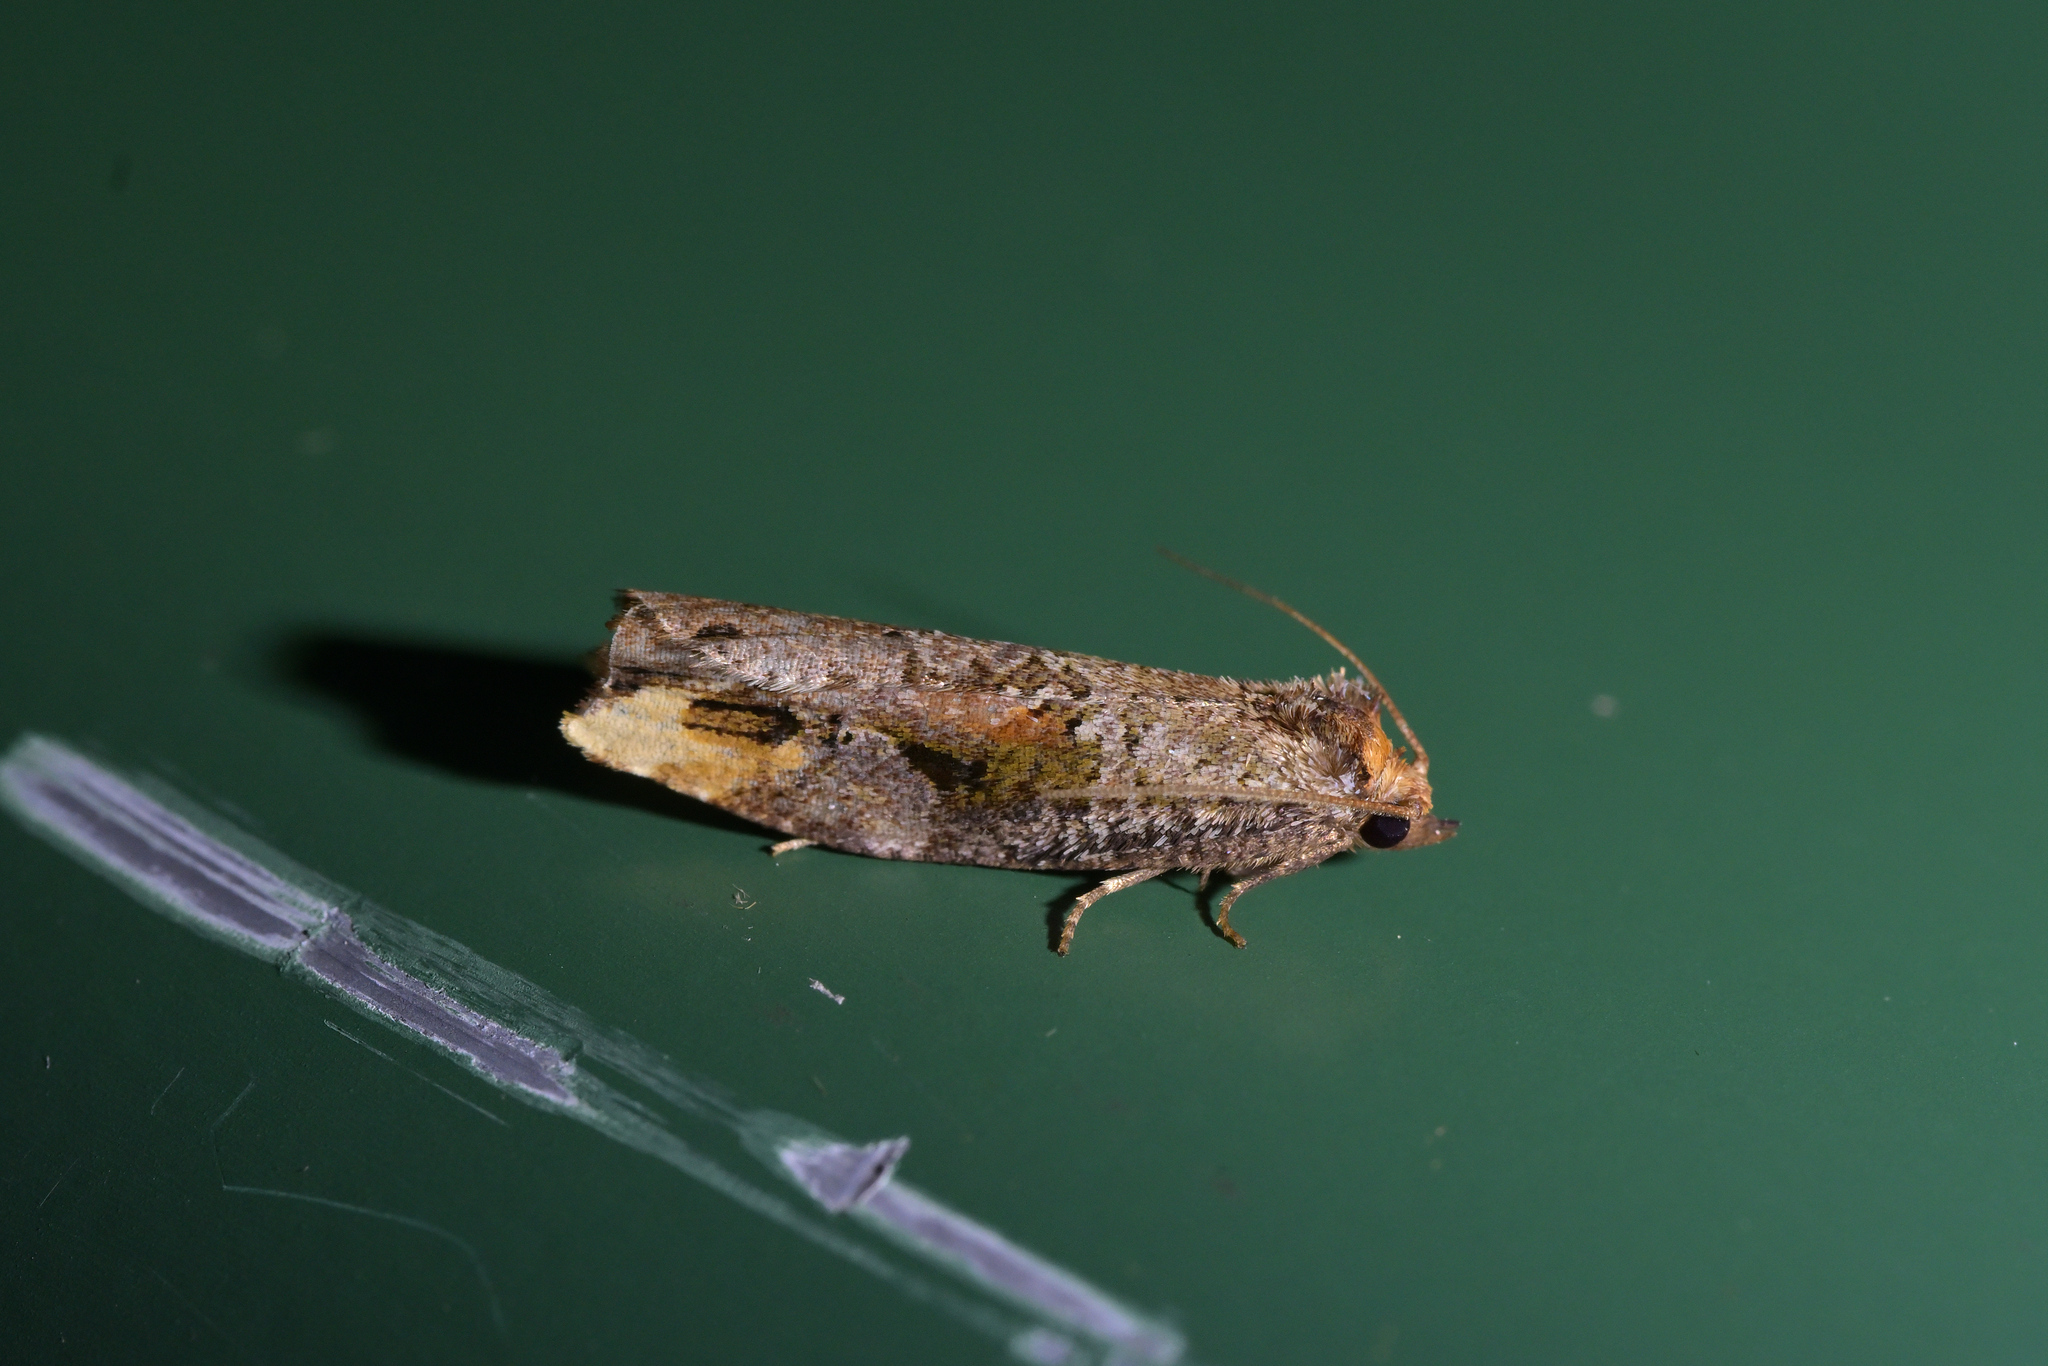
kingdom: Animalia
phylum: Arthropoda
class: Insecta
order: Lepidoptera
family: Tortricidae
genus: Epalxiphora
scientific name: Epalxiphora axenana
